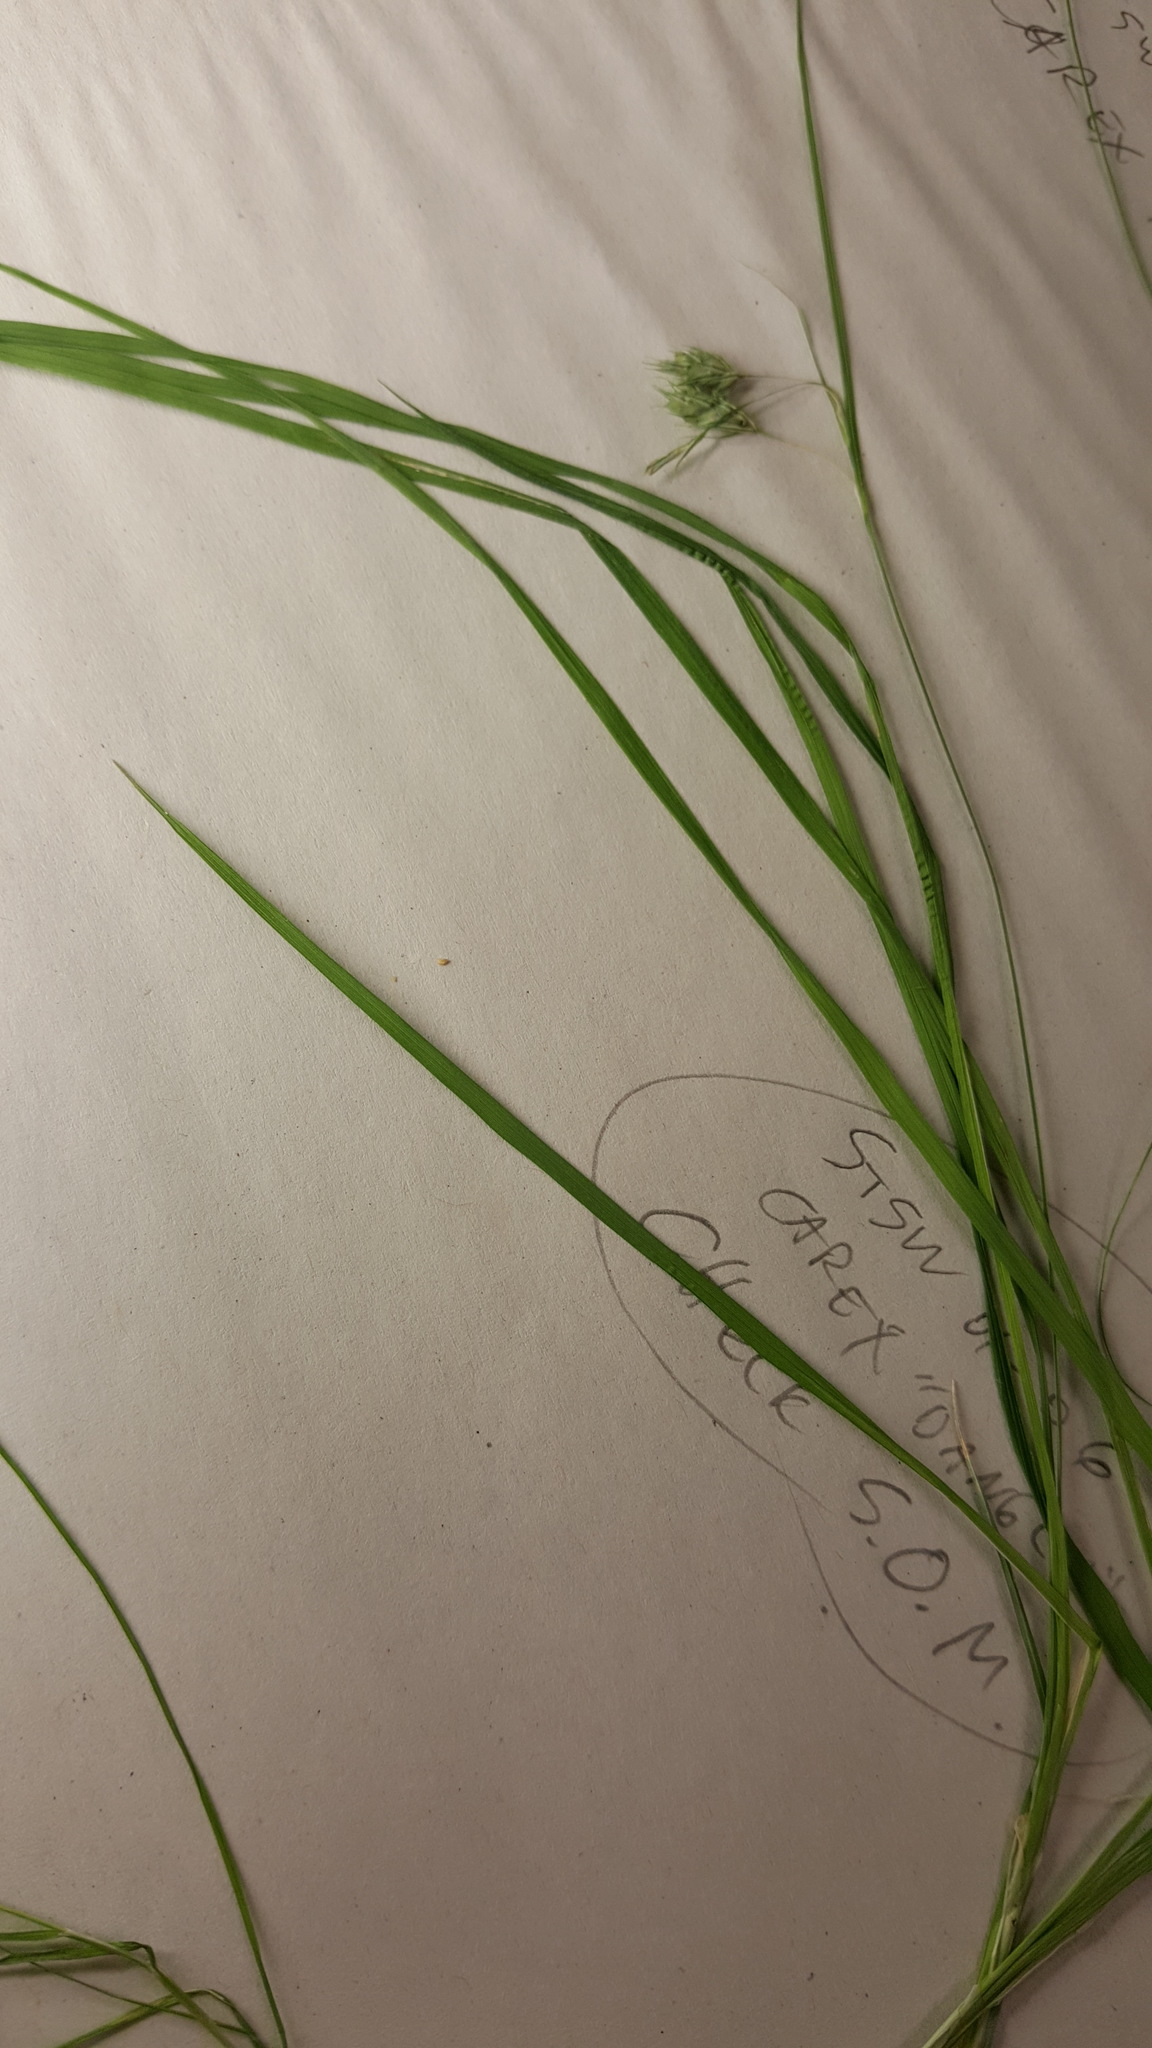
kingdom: Plantae
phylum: Tracheophyta
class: Liliopsida
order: Poales
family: Cyperaceae
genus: Carex
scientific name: Carex magellanica
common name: Bog sedge
